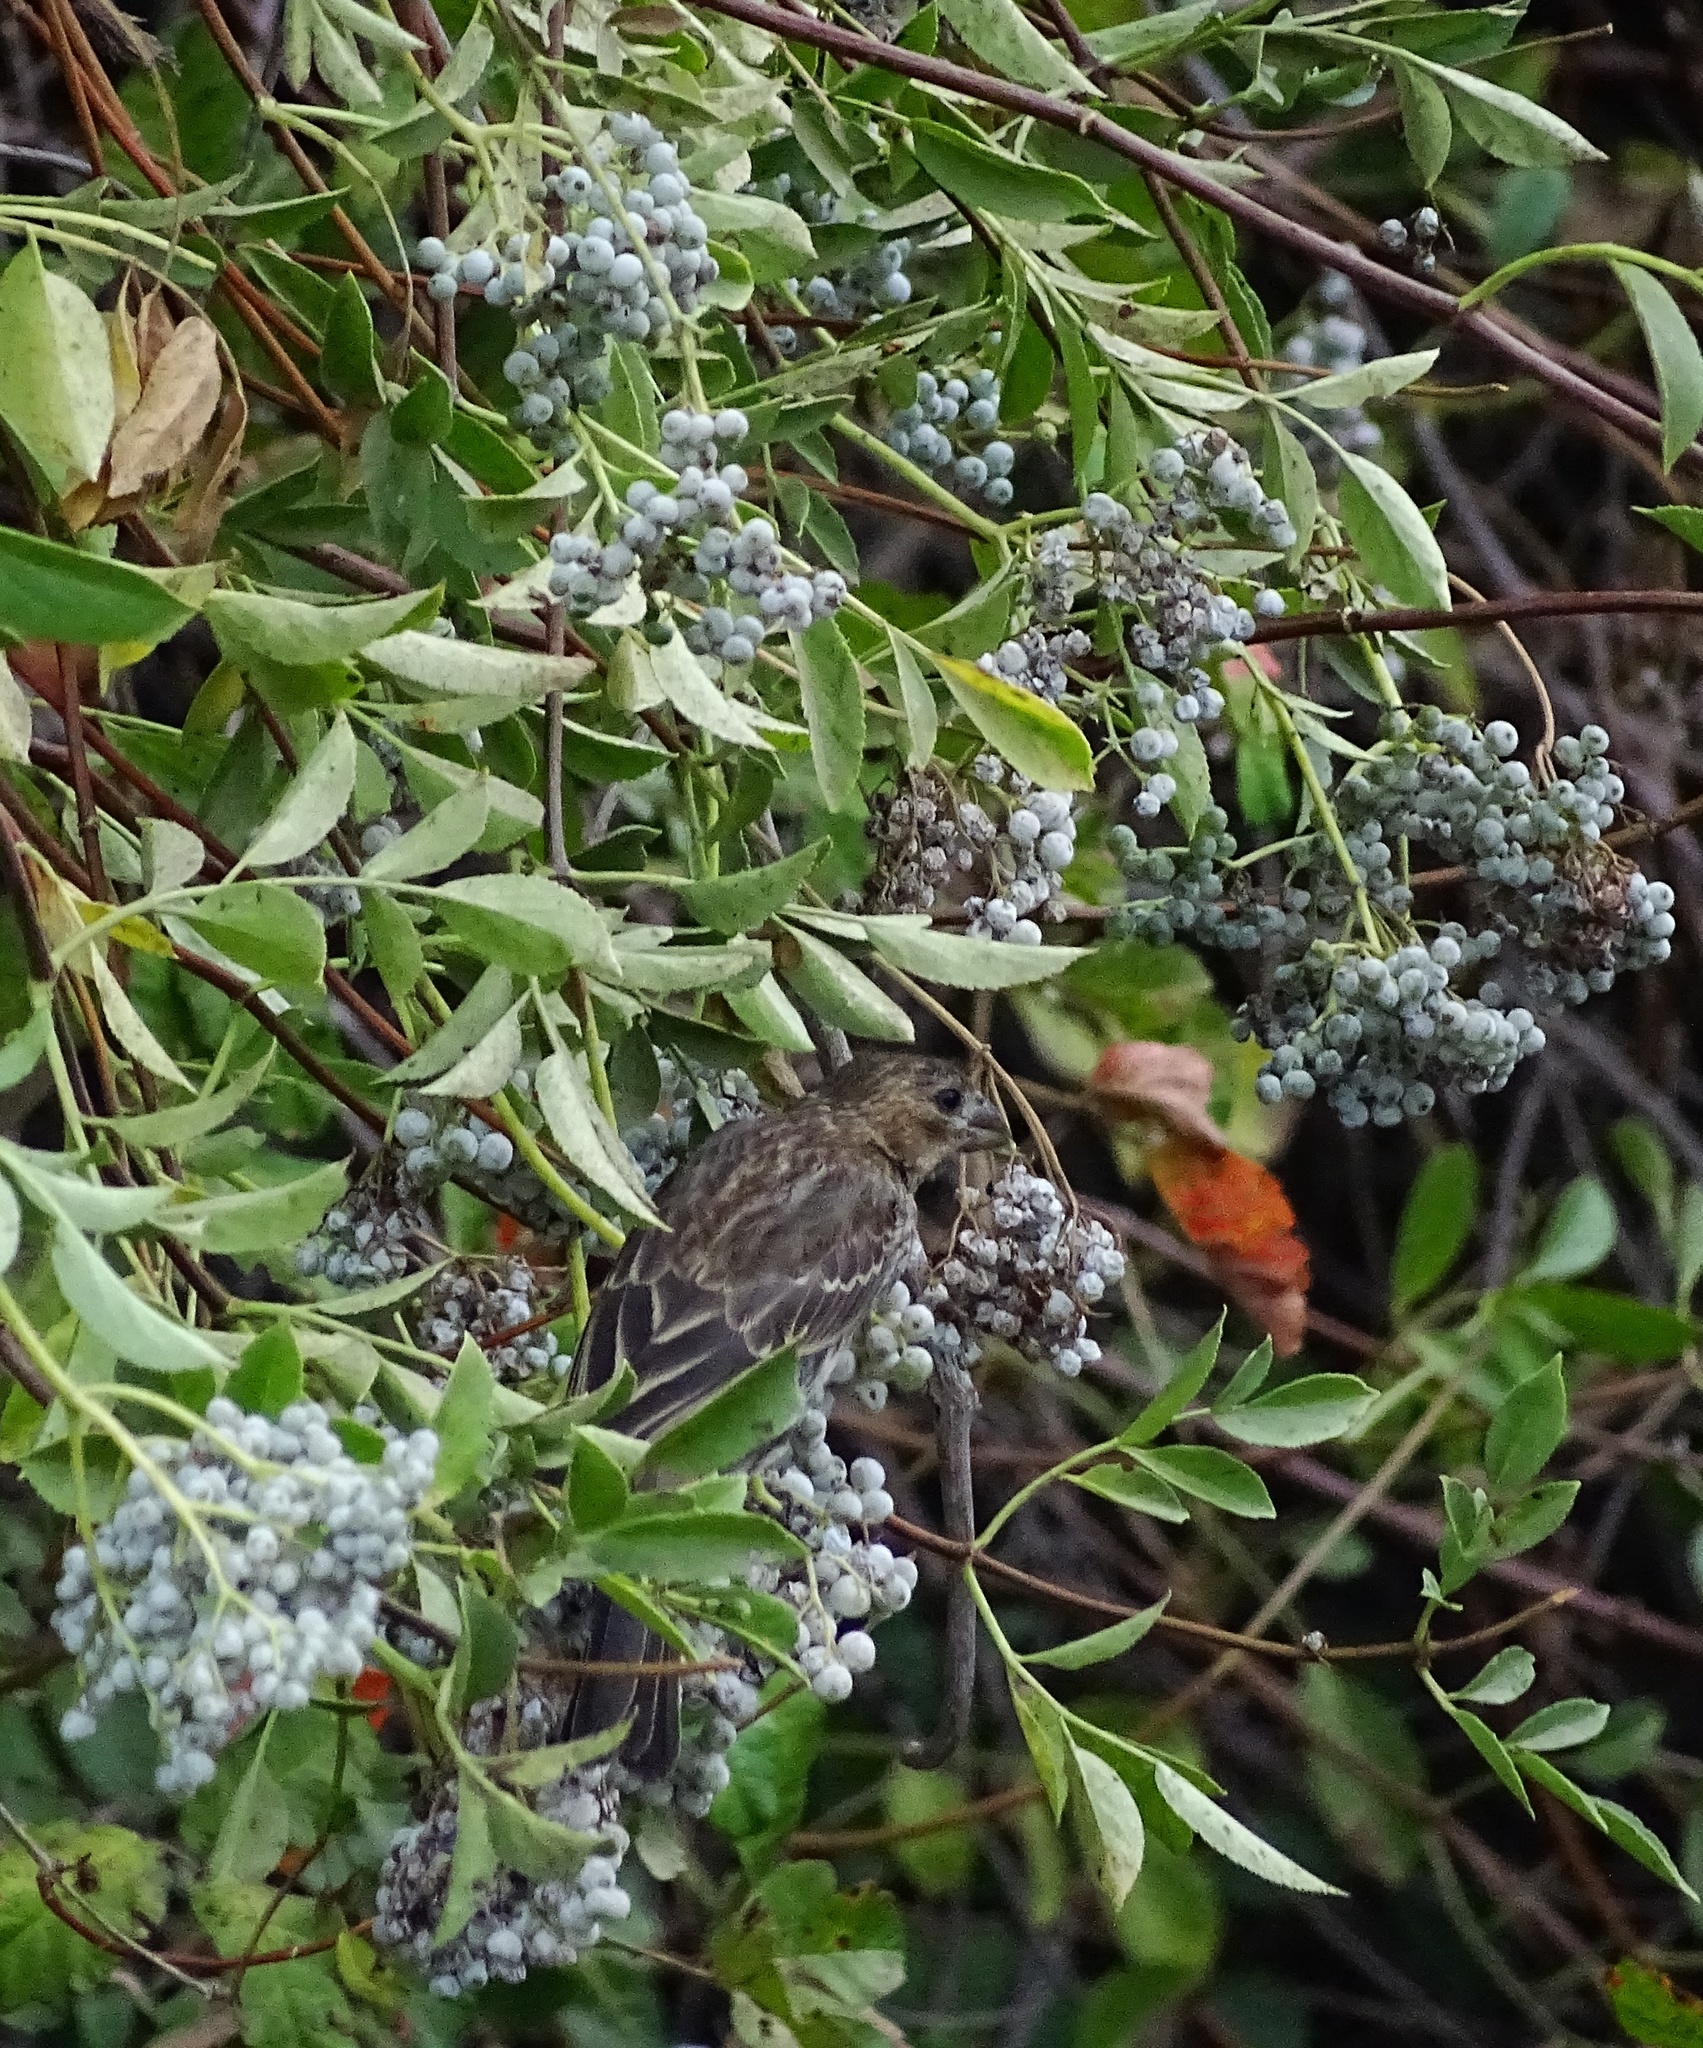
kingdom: Animalia
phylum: Chordata
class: Aves
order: Passeriformes
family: Fringillidae
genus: Haemorhous
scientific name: Haemorhous mexicanus
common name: House finch
